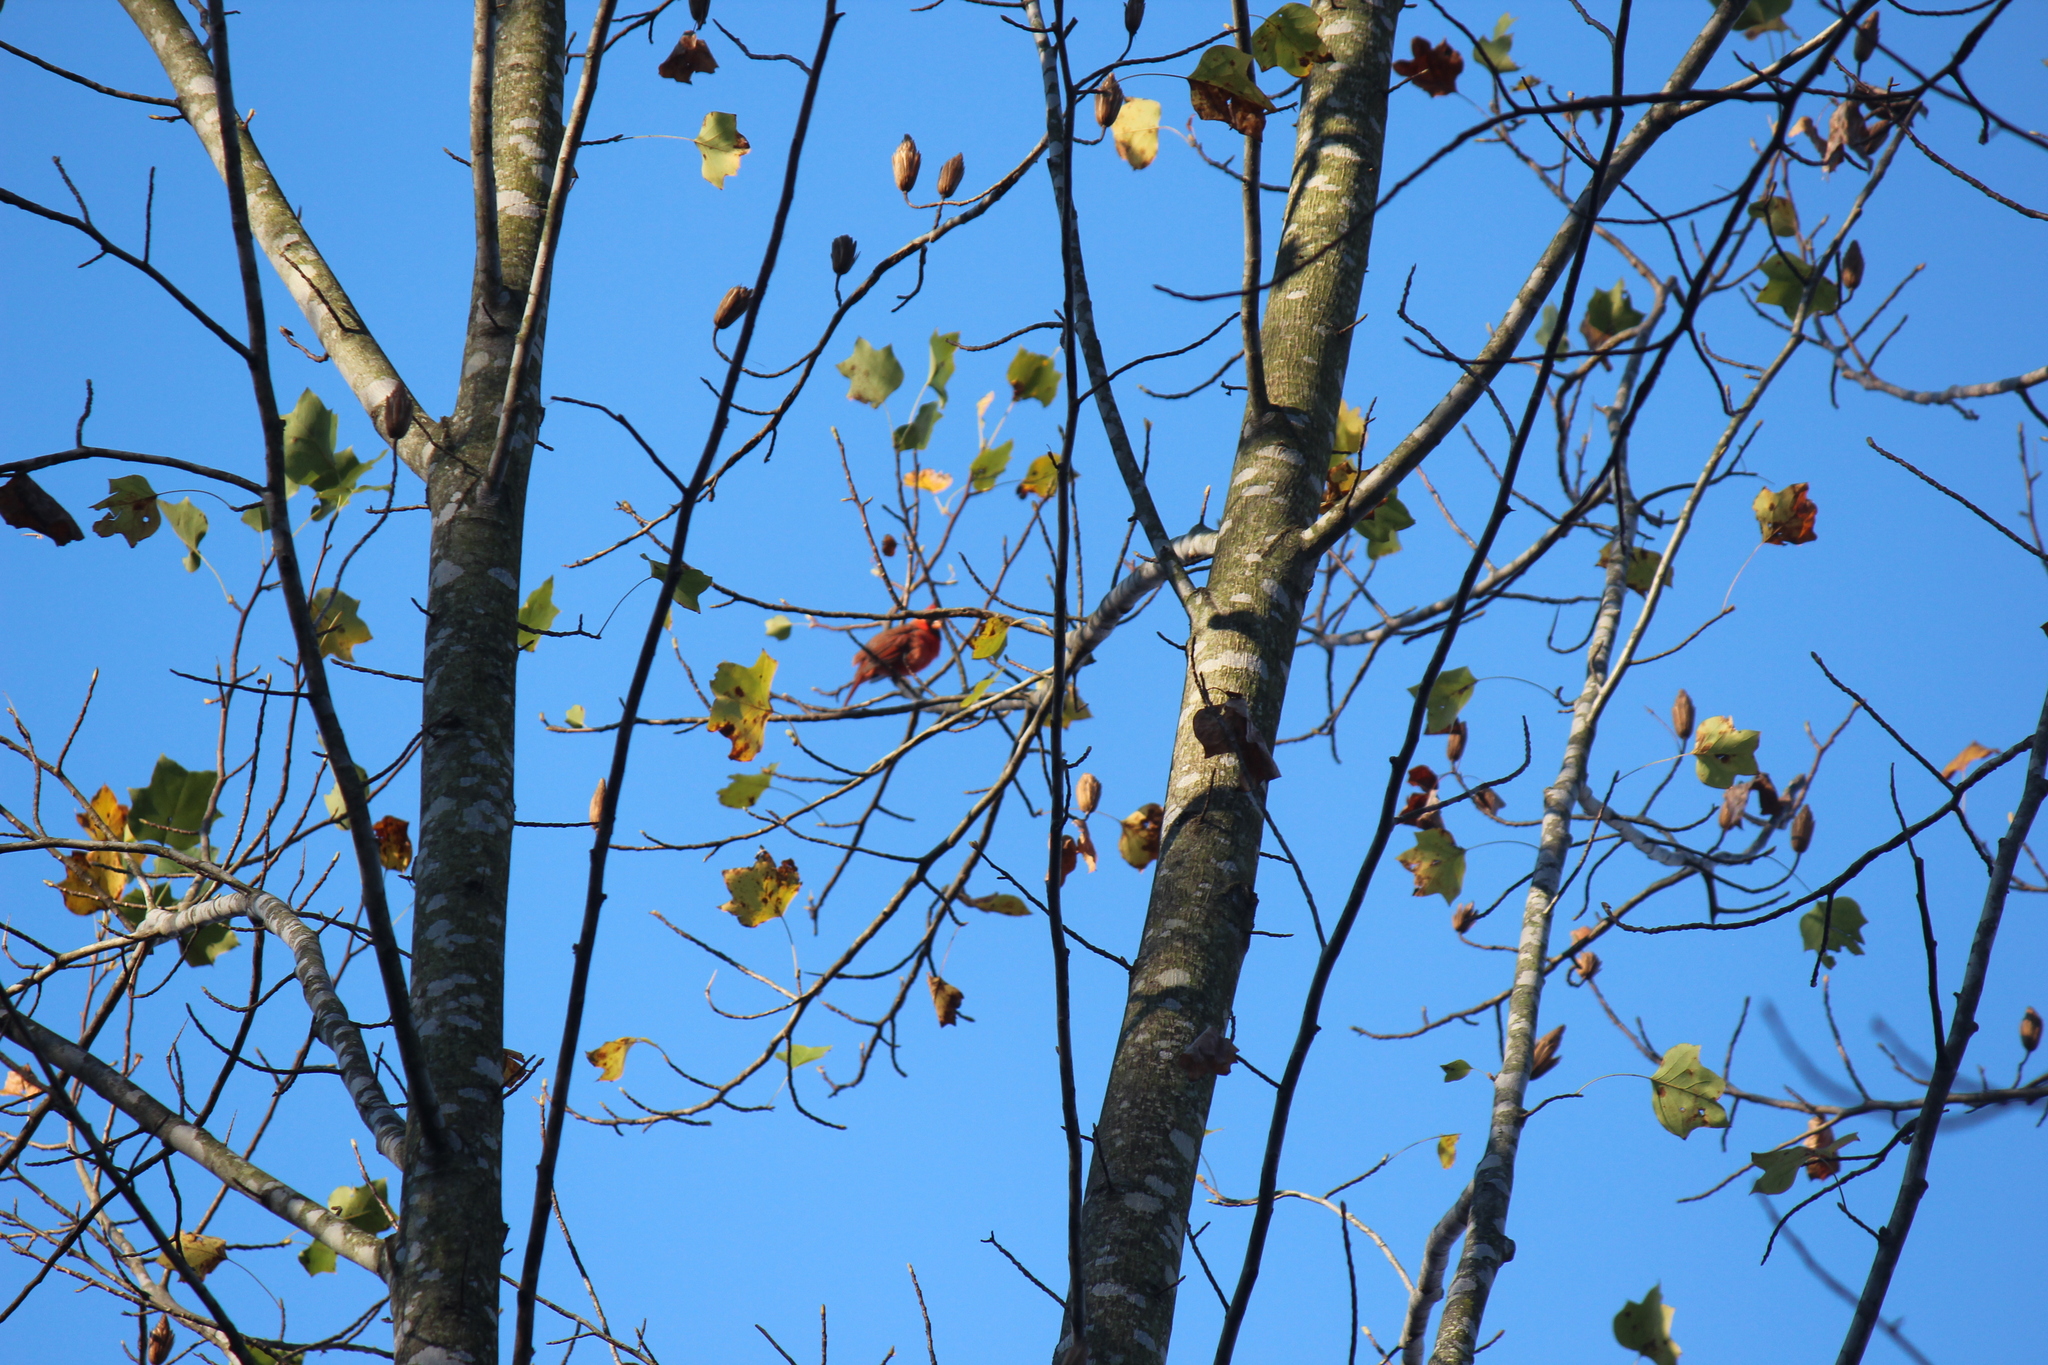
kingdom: Animalia
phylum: Chordata
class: Aves
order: Passeriformes
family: Cardinalidae
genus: Cardinalis
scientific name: Cardinalis cardinalis
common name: Northern cardinal
